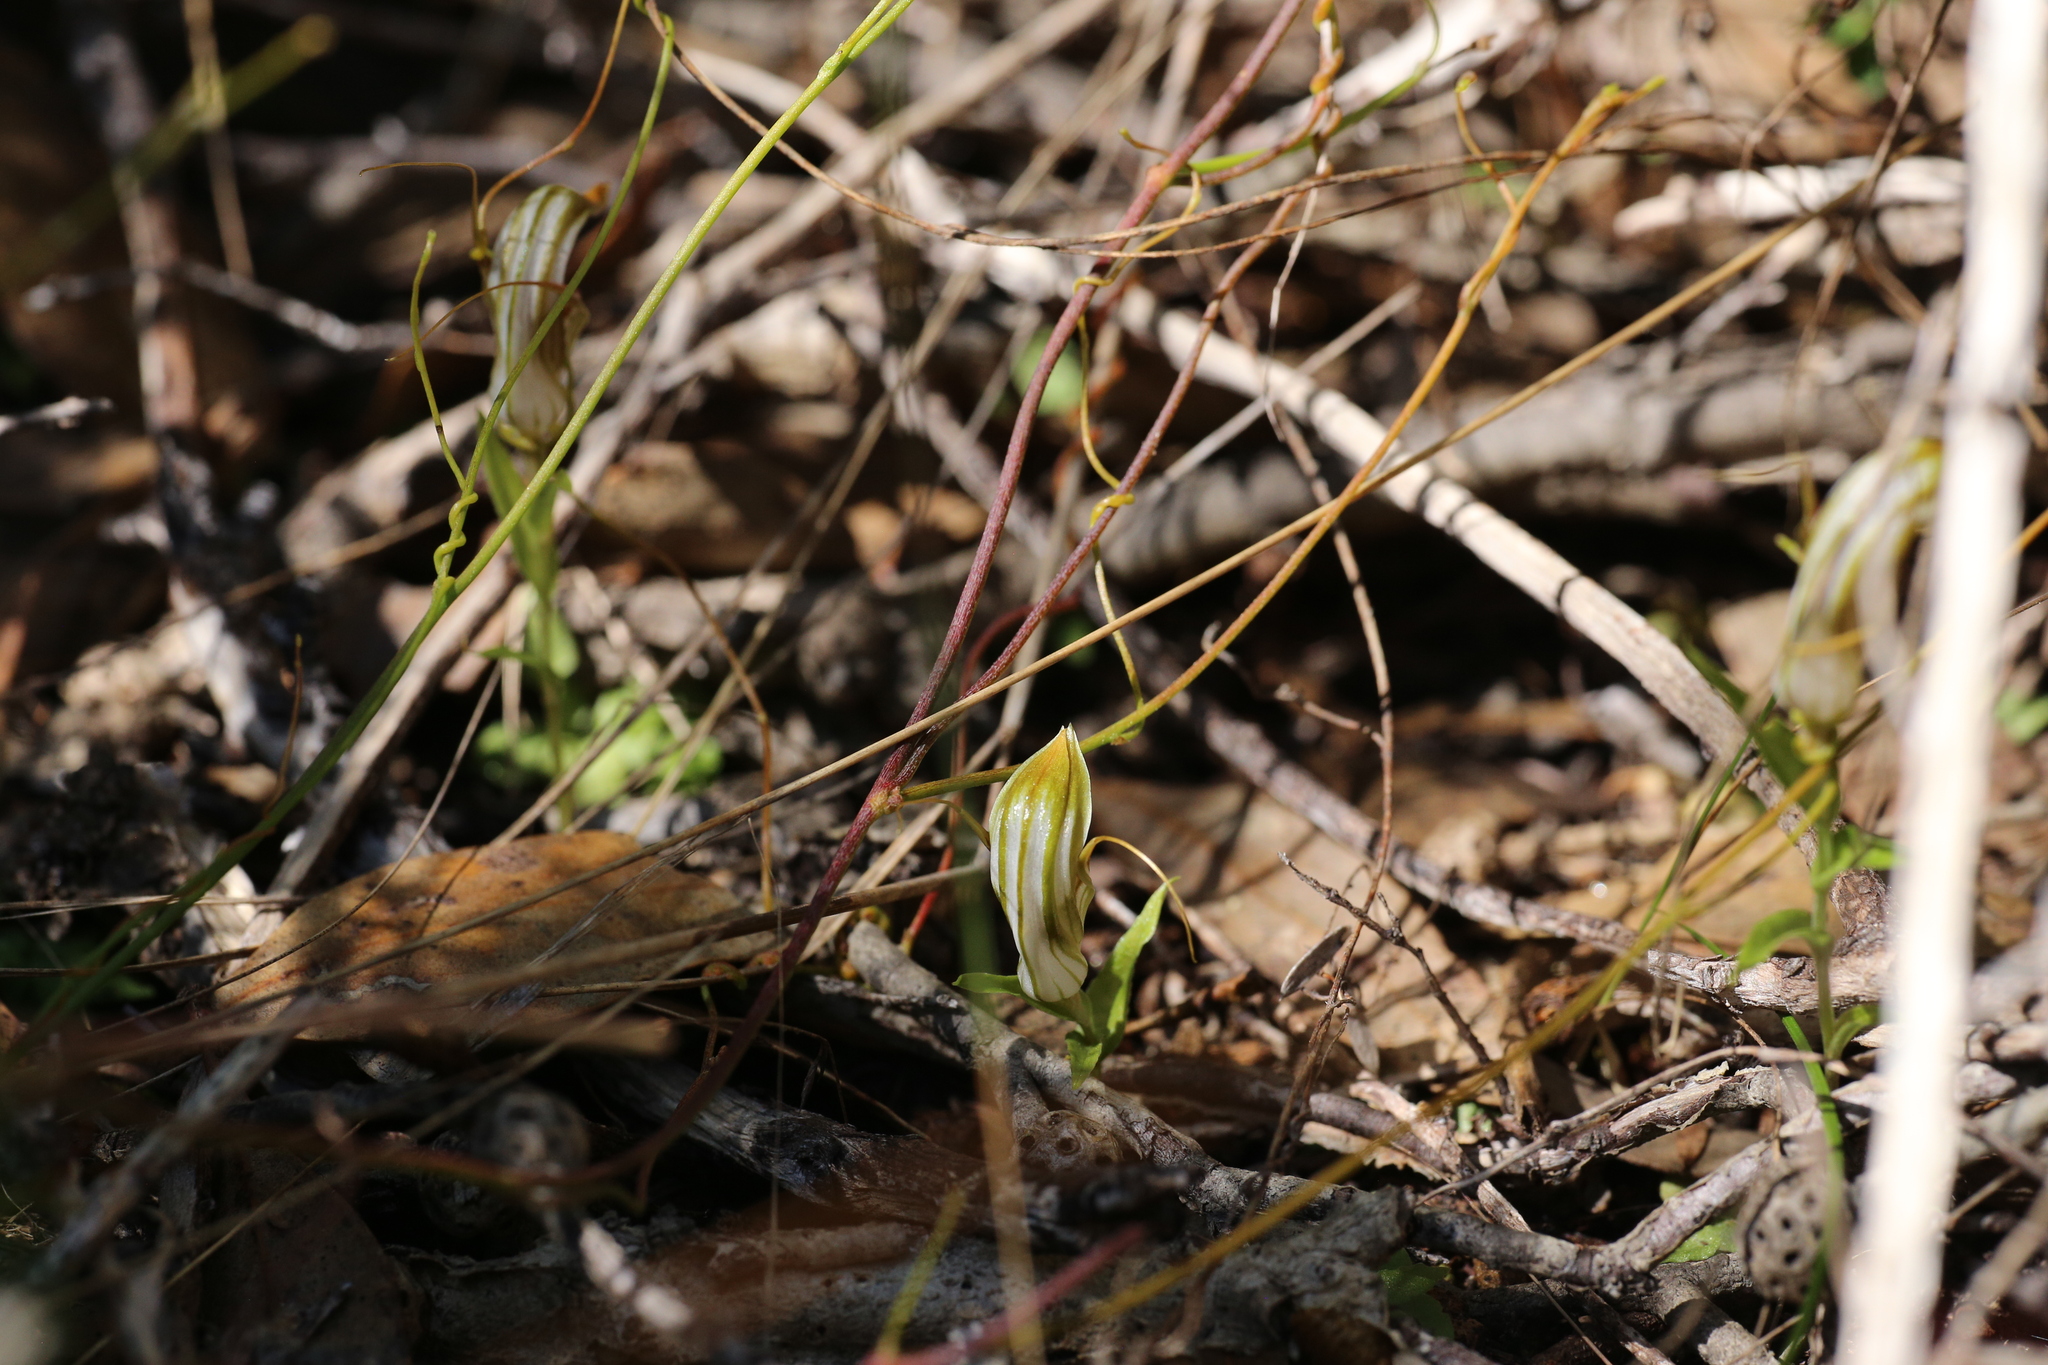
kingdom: Plantae
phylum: Tracheophyta
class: Liliopsida
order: Asparagales
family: Orchidaceae
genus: Pterostylis
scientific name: Pterostylis rogersii
